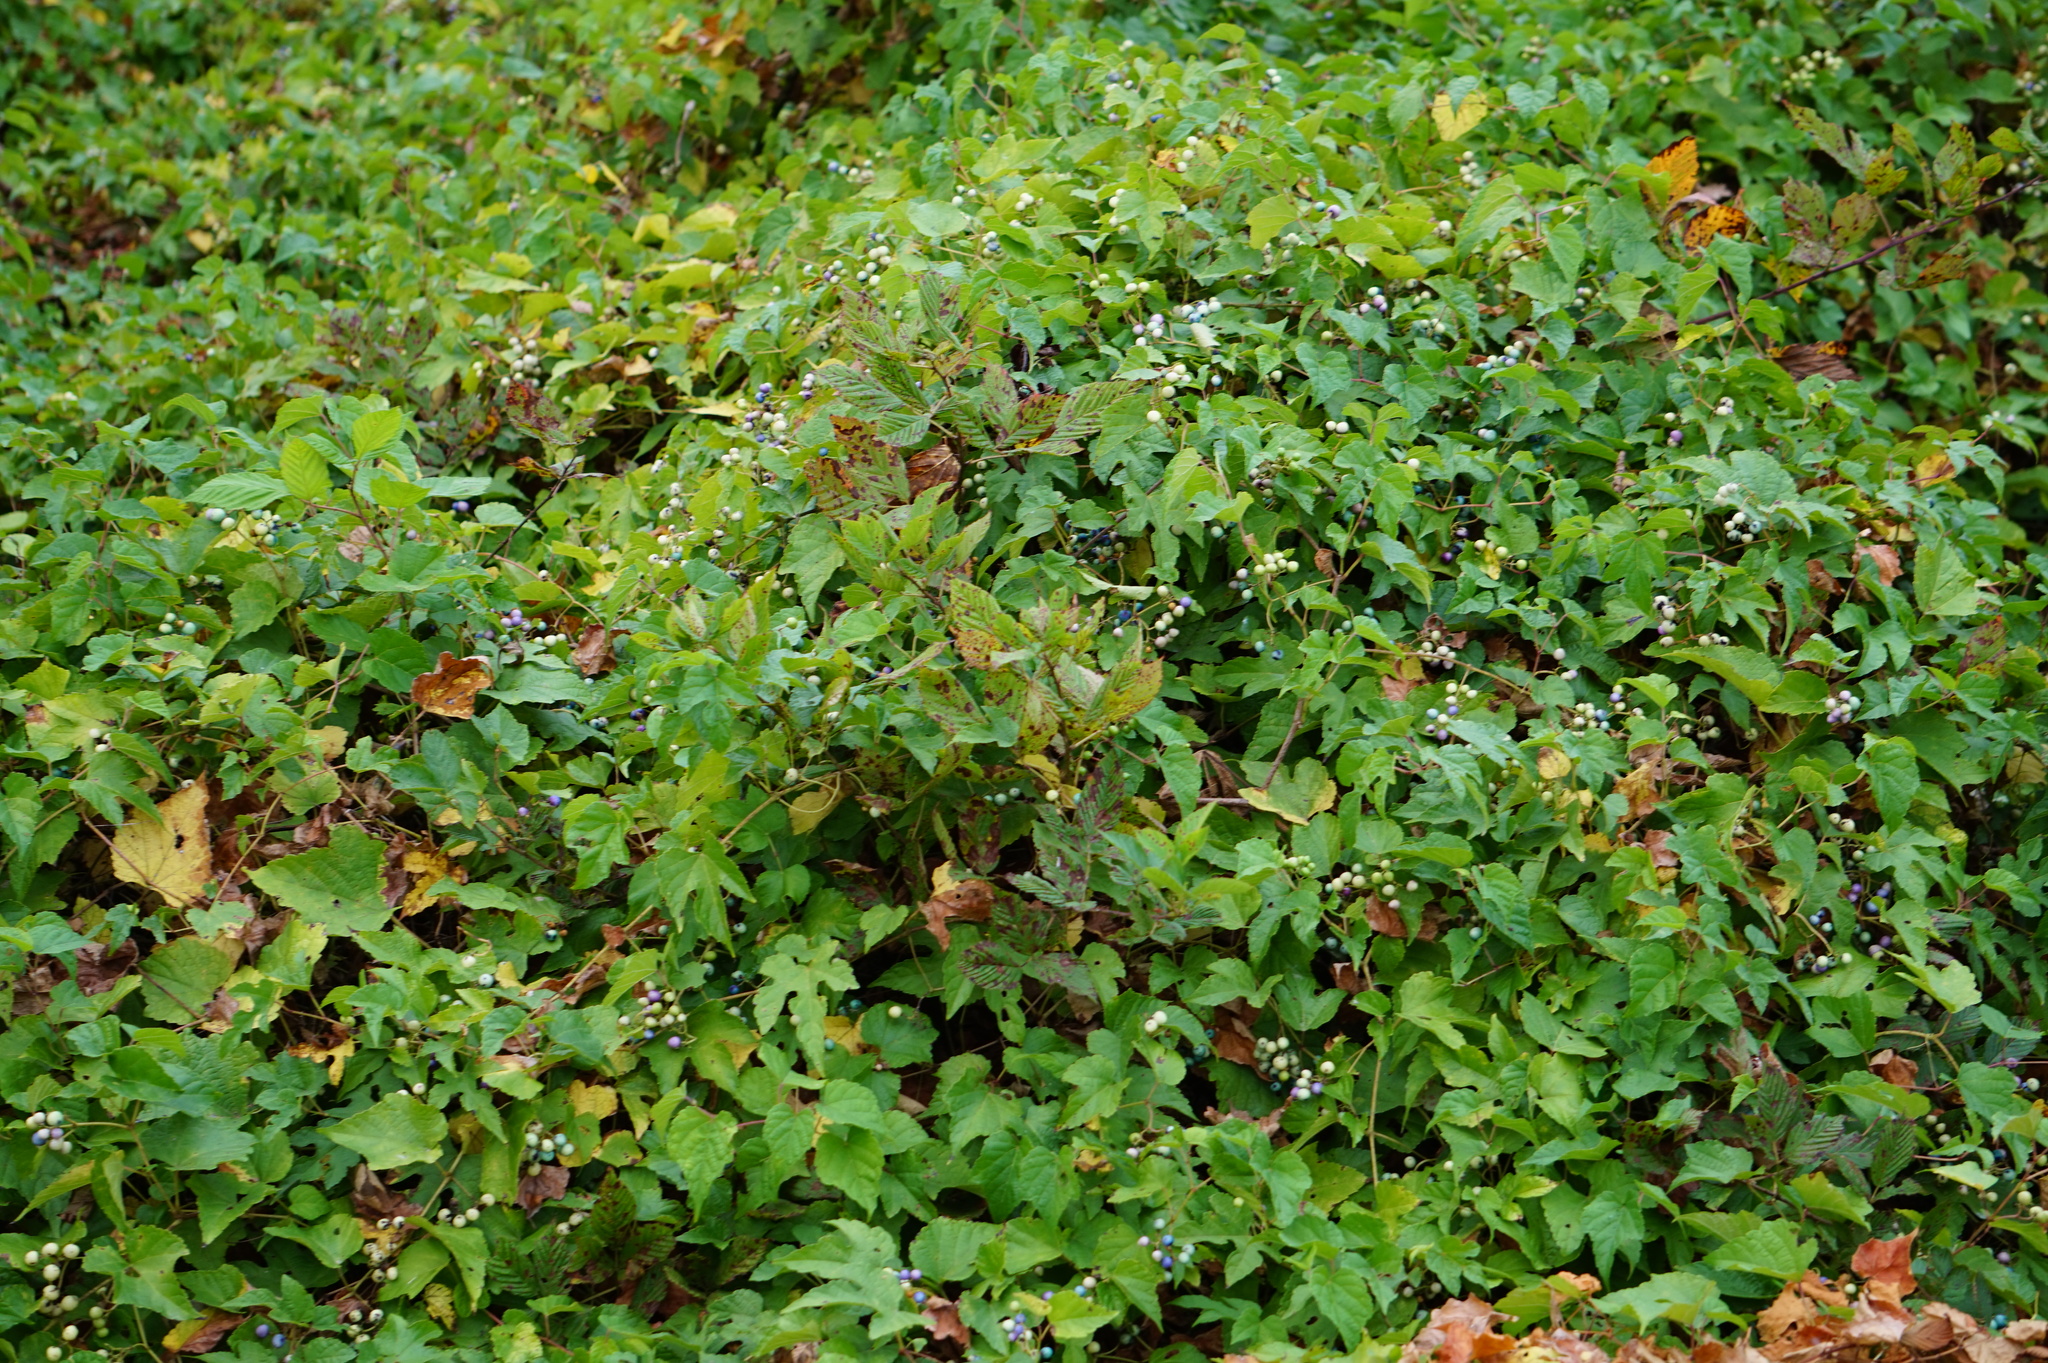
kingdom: Plantae
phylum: Tracheophyta
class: Magnoliopsida
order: Vitales
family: Vitaceae
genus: Ampelopsis
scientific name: Ampelopsis glandulosa
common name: Amur peppervine
